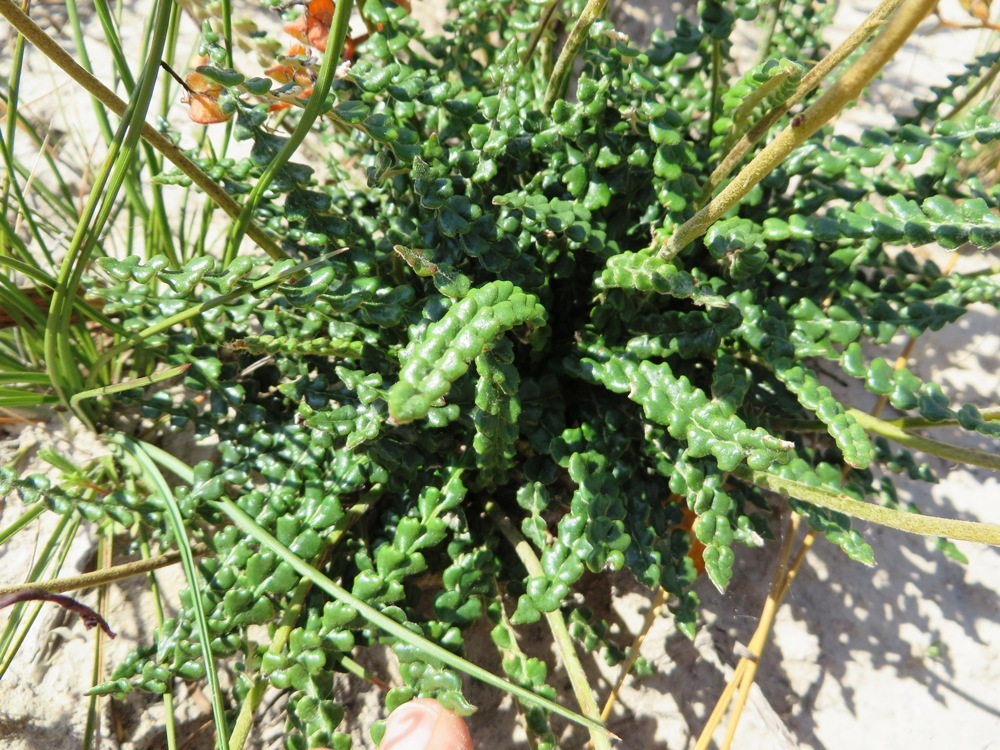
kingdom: Plantae
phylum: Tracheophyta
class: Magnoliopsida
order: Asterales
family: Asteraceae
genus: Gerbera
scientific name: Gerbera linnaei
